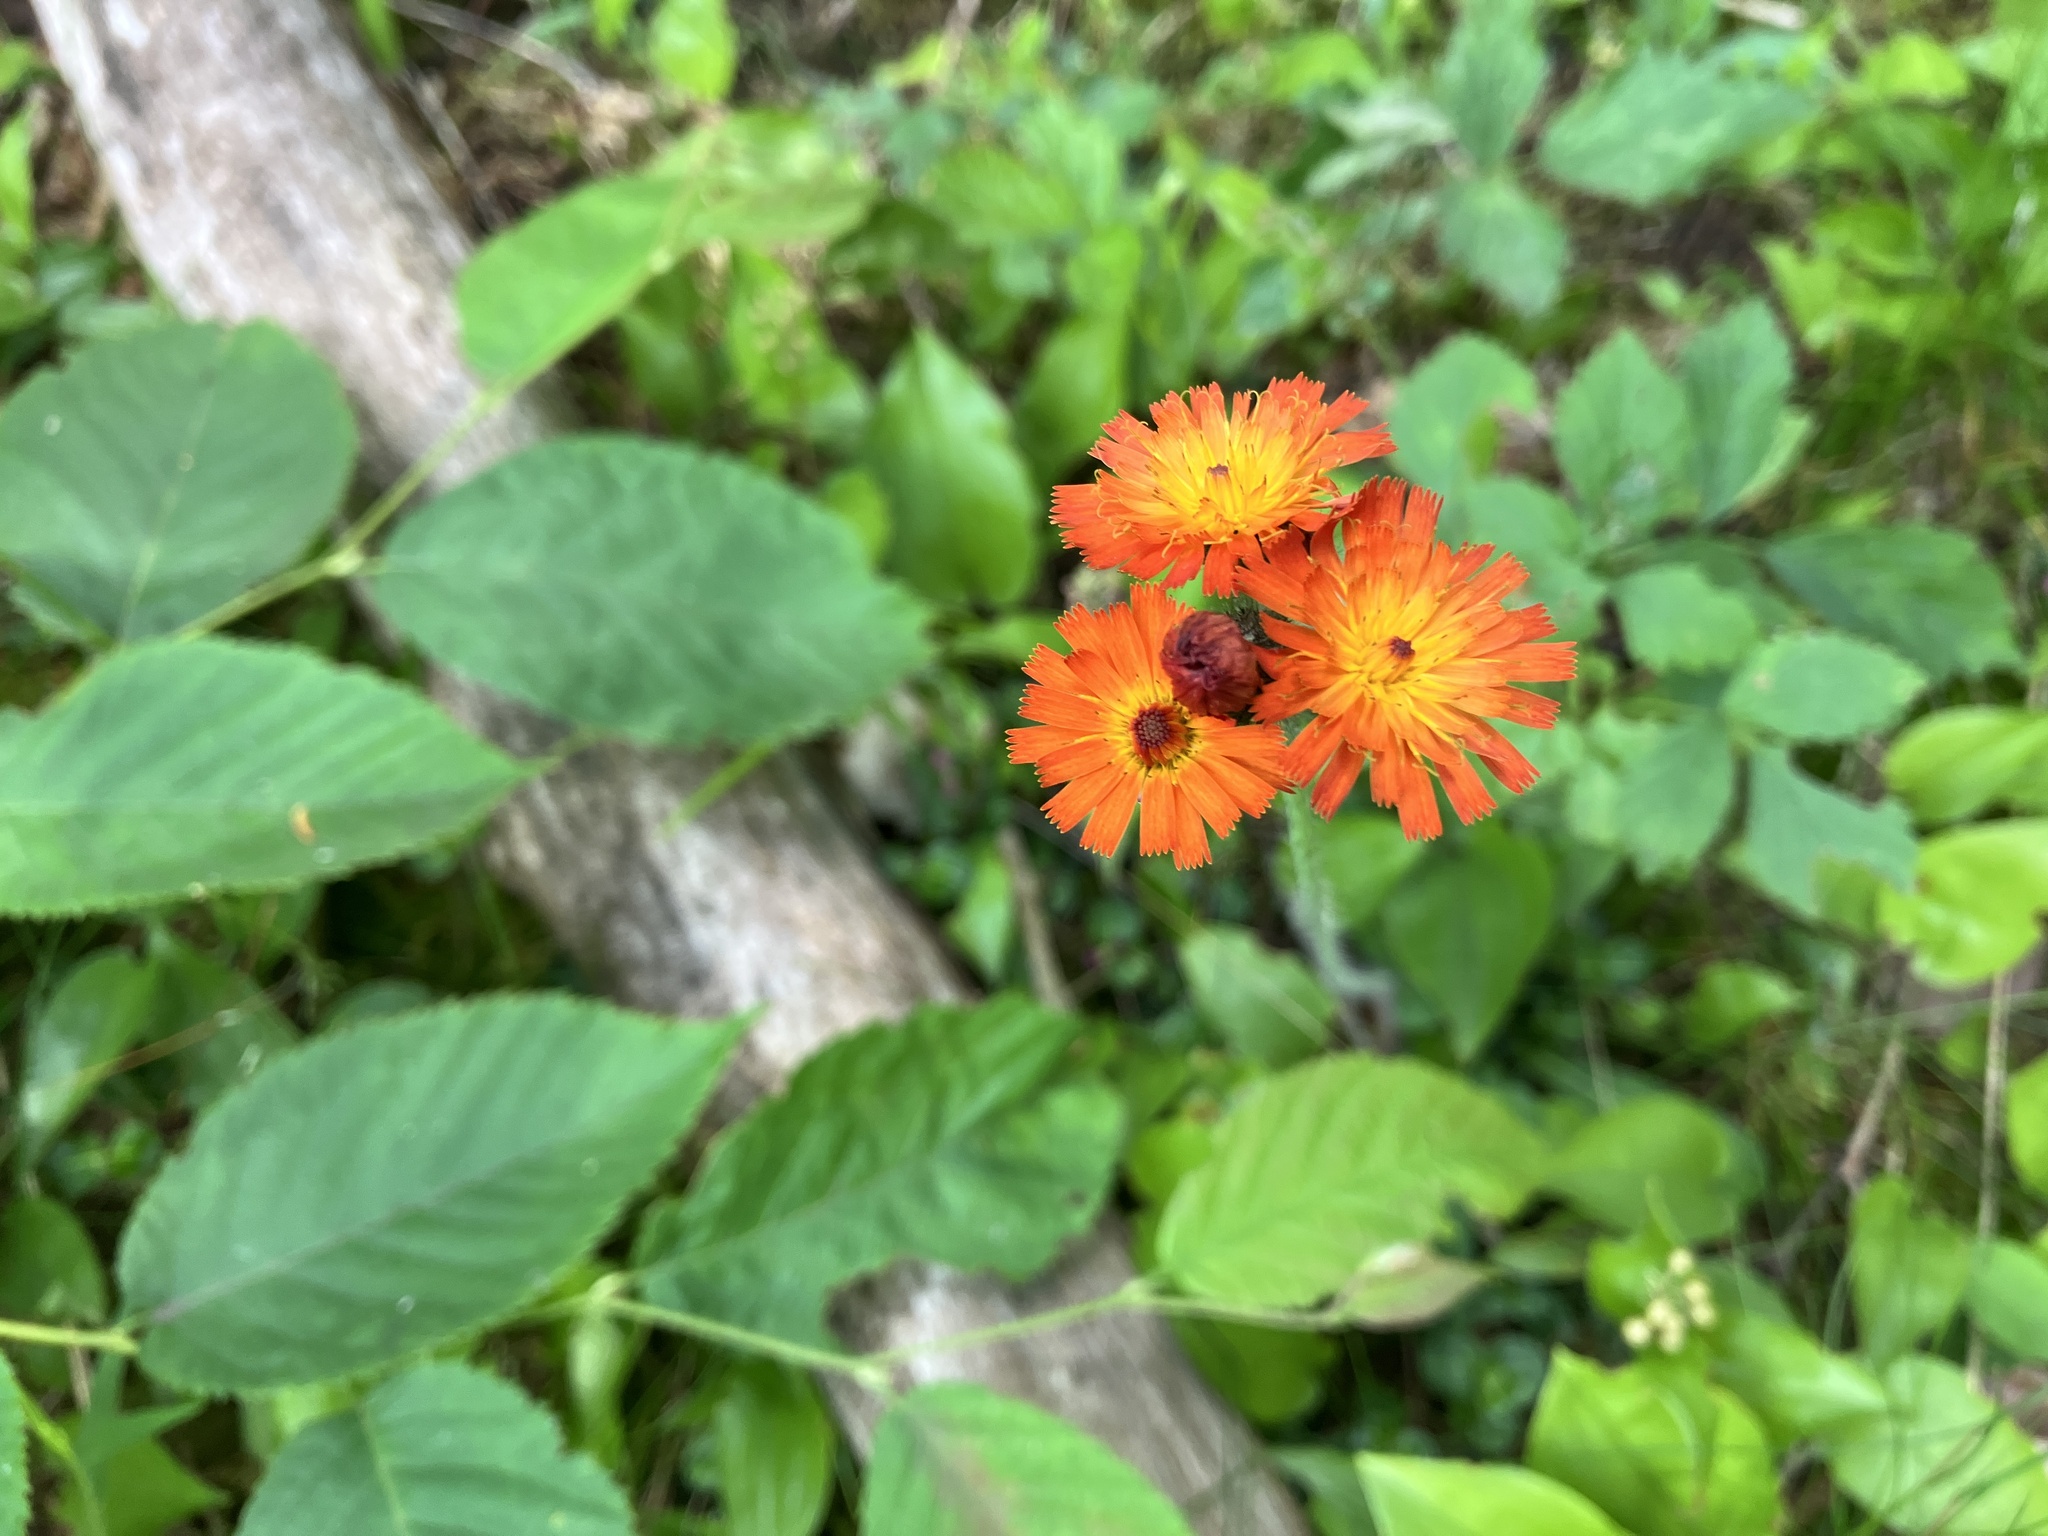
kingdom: Plantae
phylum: Tracheophyta
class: Magnoliopsida
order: Asterales
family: Asteraceae
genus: Pilosella
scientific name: Pilosella aurantiaca
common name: Fox-and-cubs
